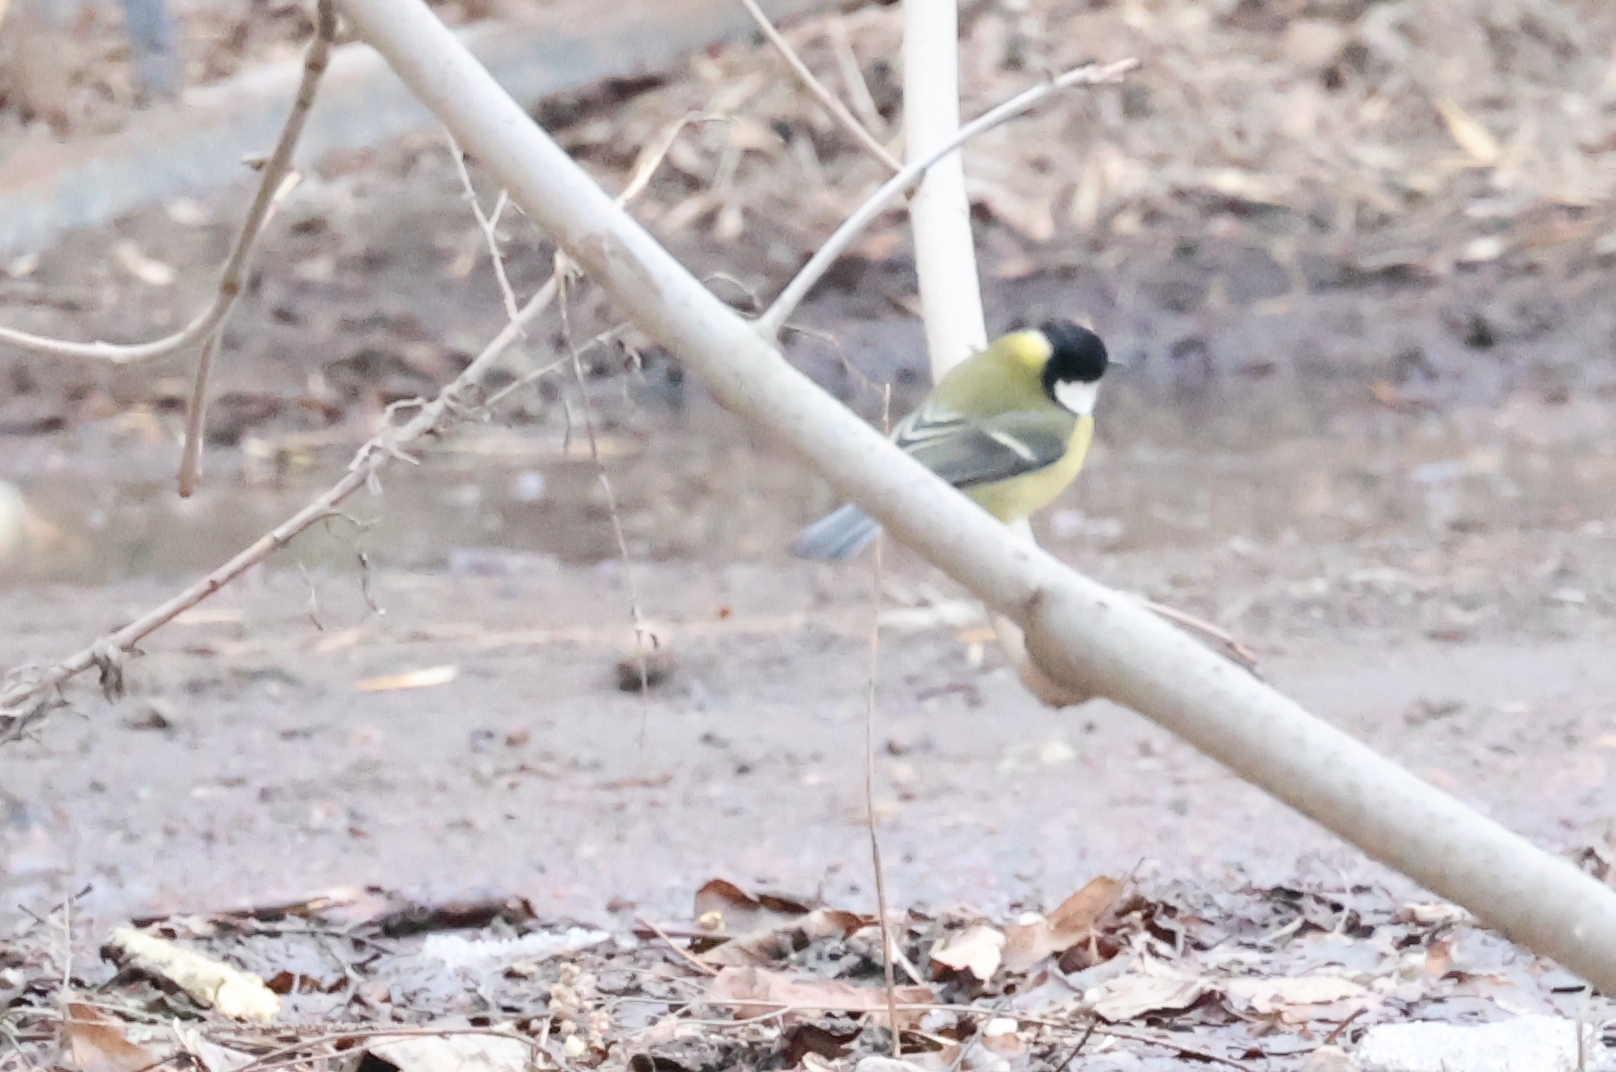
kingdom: Animalia
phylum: Chordata
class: Aves
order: Passeriformes
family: Paridae
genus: Parus
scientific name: Parus major
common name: Great tit
